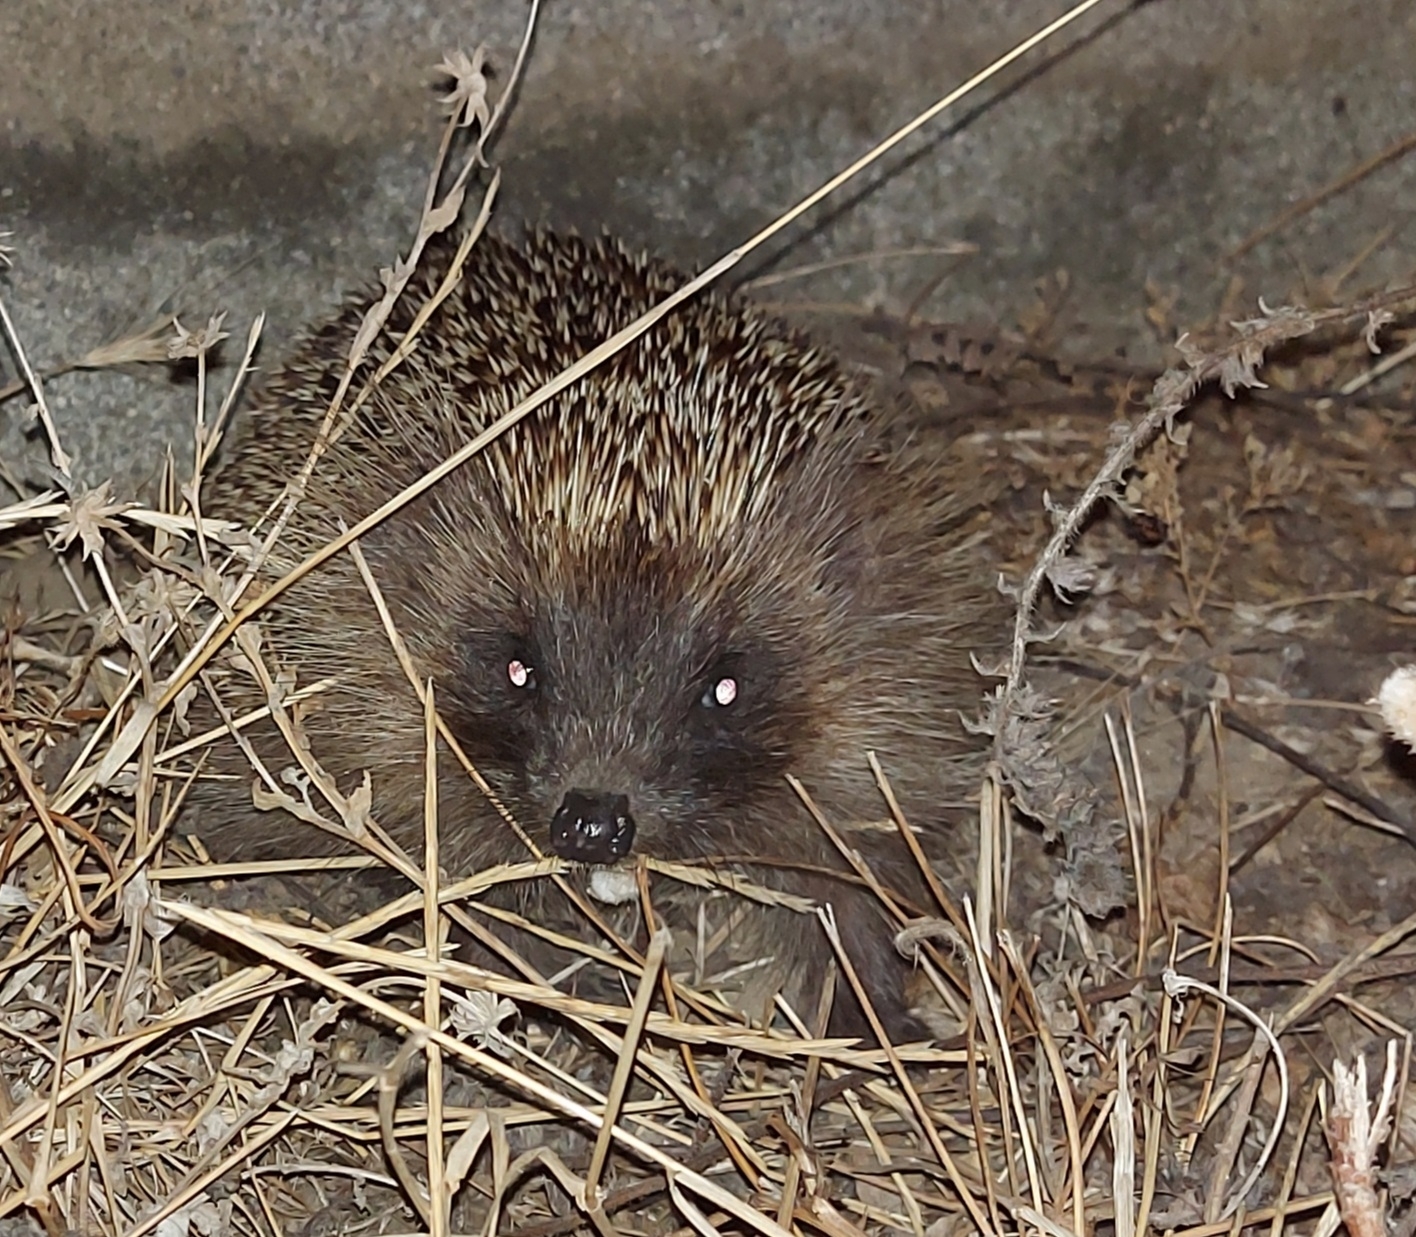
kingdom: Animalia
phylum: Chordata
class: Mammalia
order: Erinaceomorpha
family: Erinaceidae
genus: Erinaceus
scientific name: Erinaceus europaeus
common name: West european hedgehog
